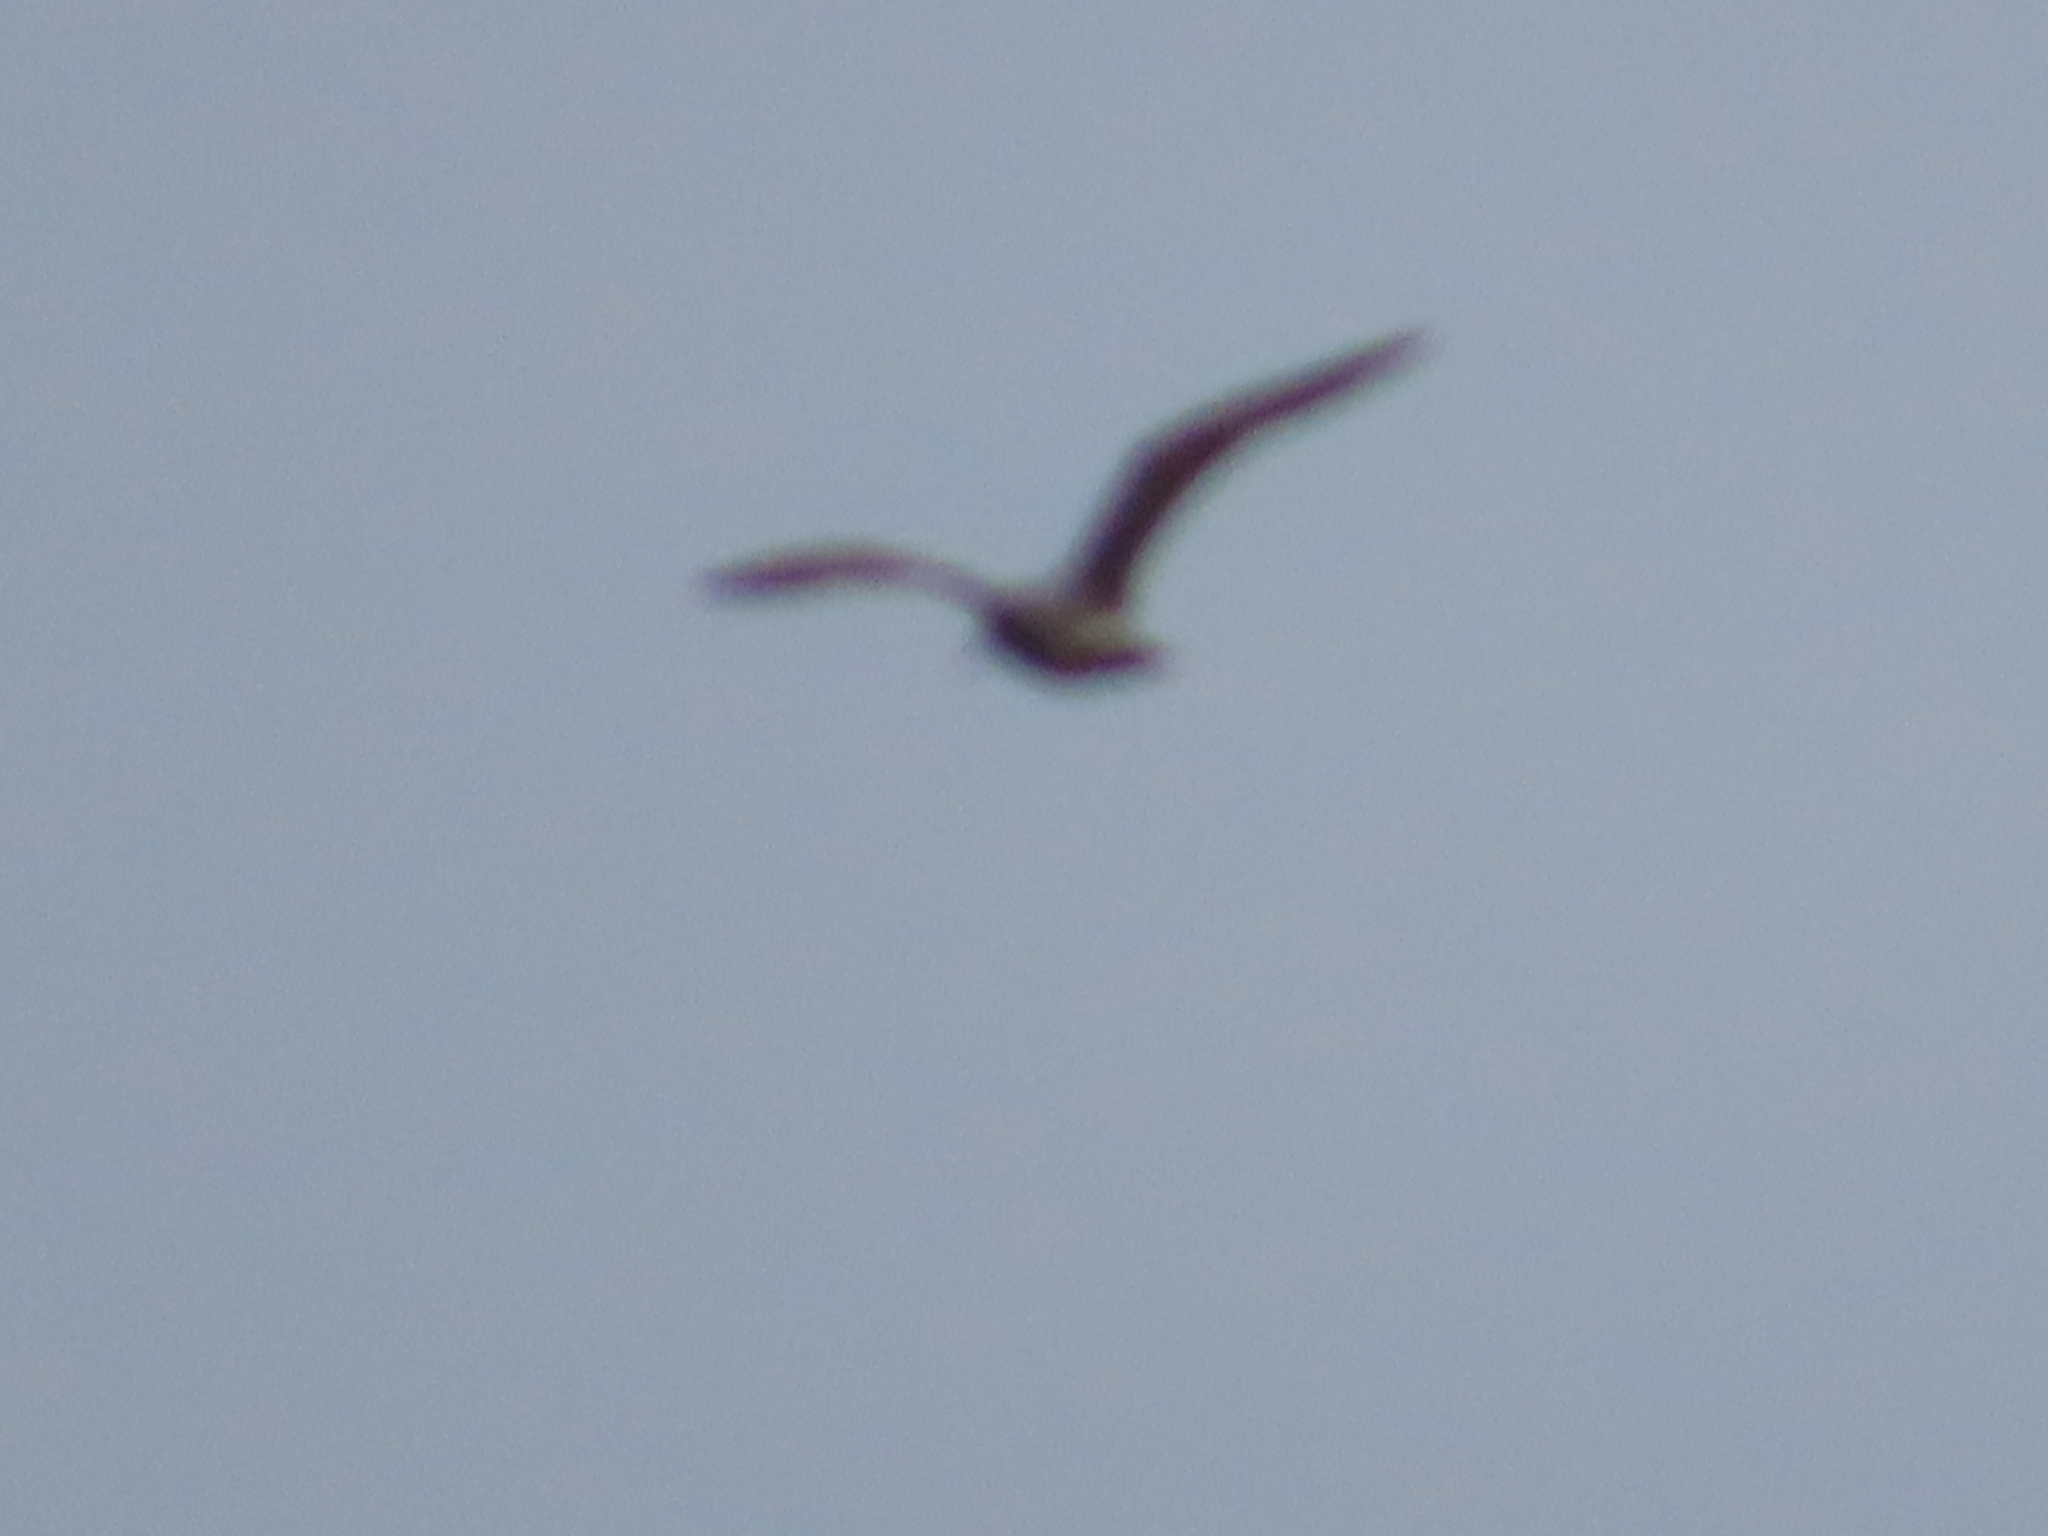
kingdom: Animalia
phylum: Chordata
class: Aves
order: Charadriiformes
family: Laridae
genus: Larus
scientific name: Larus argentatus
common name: Herring gull
